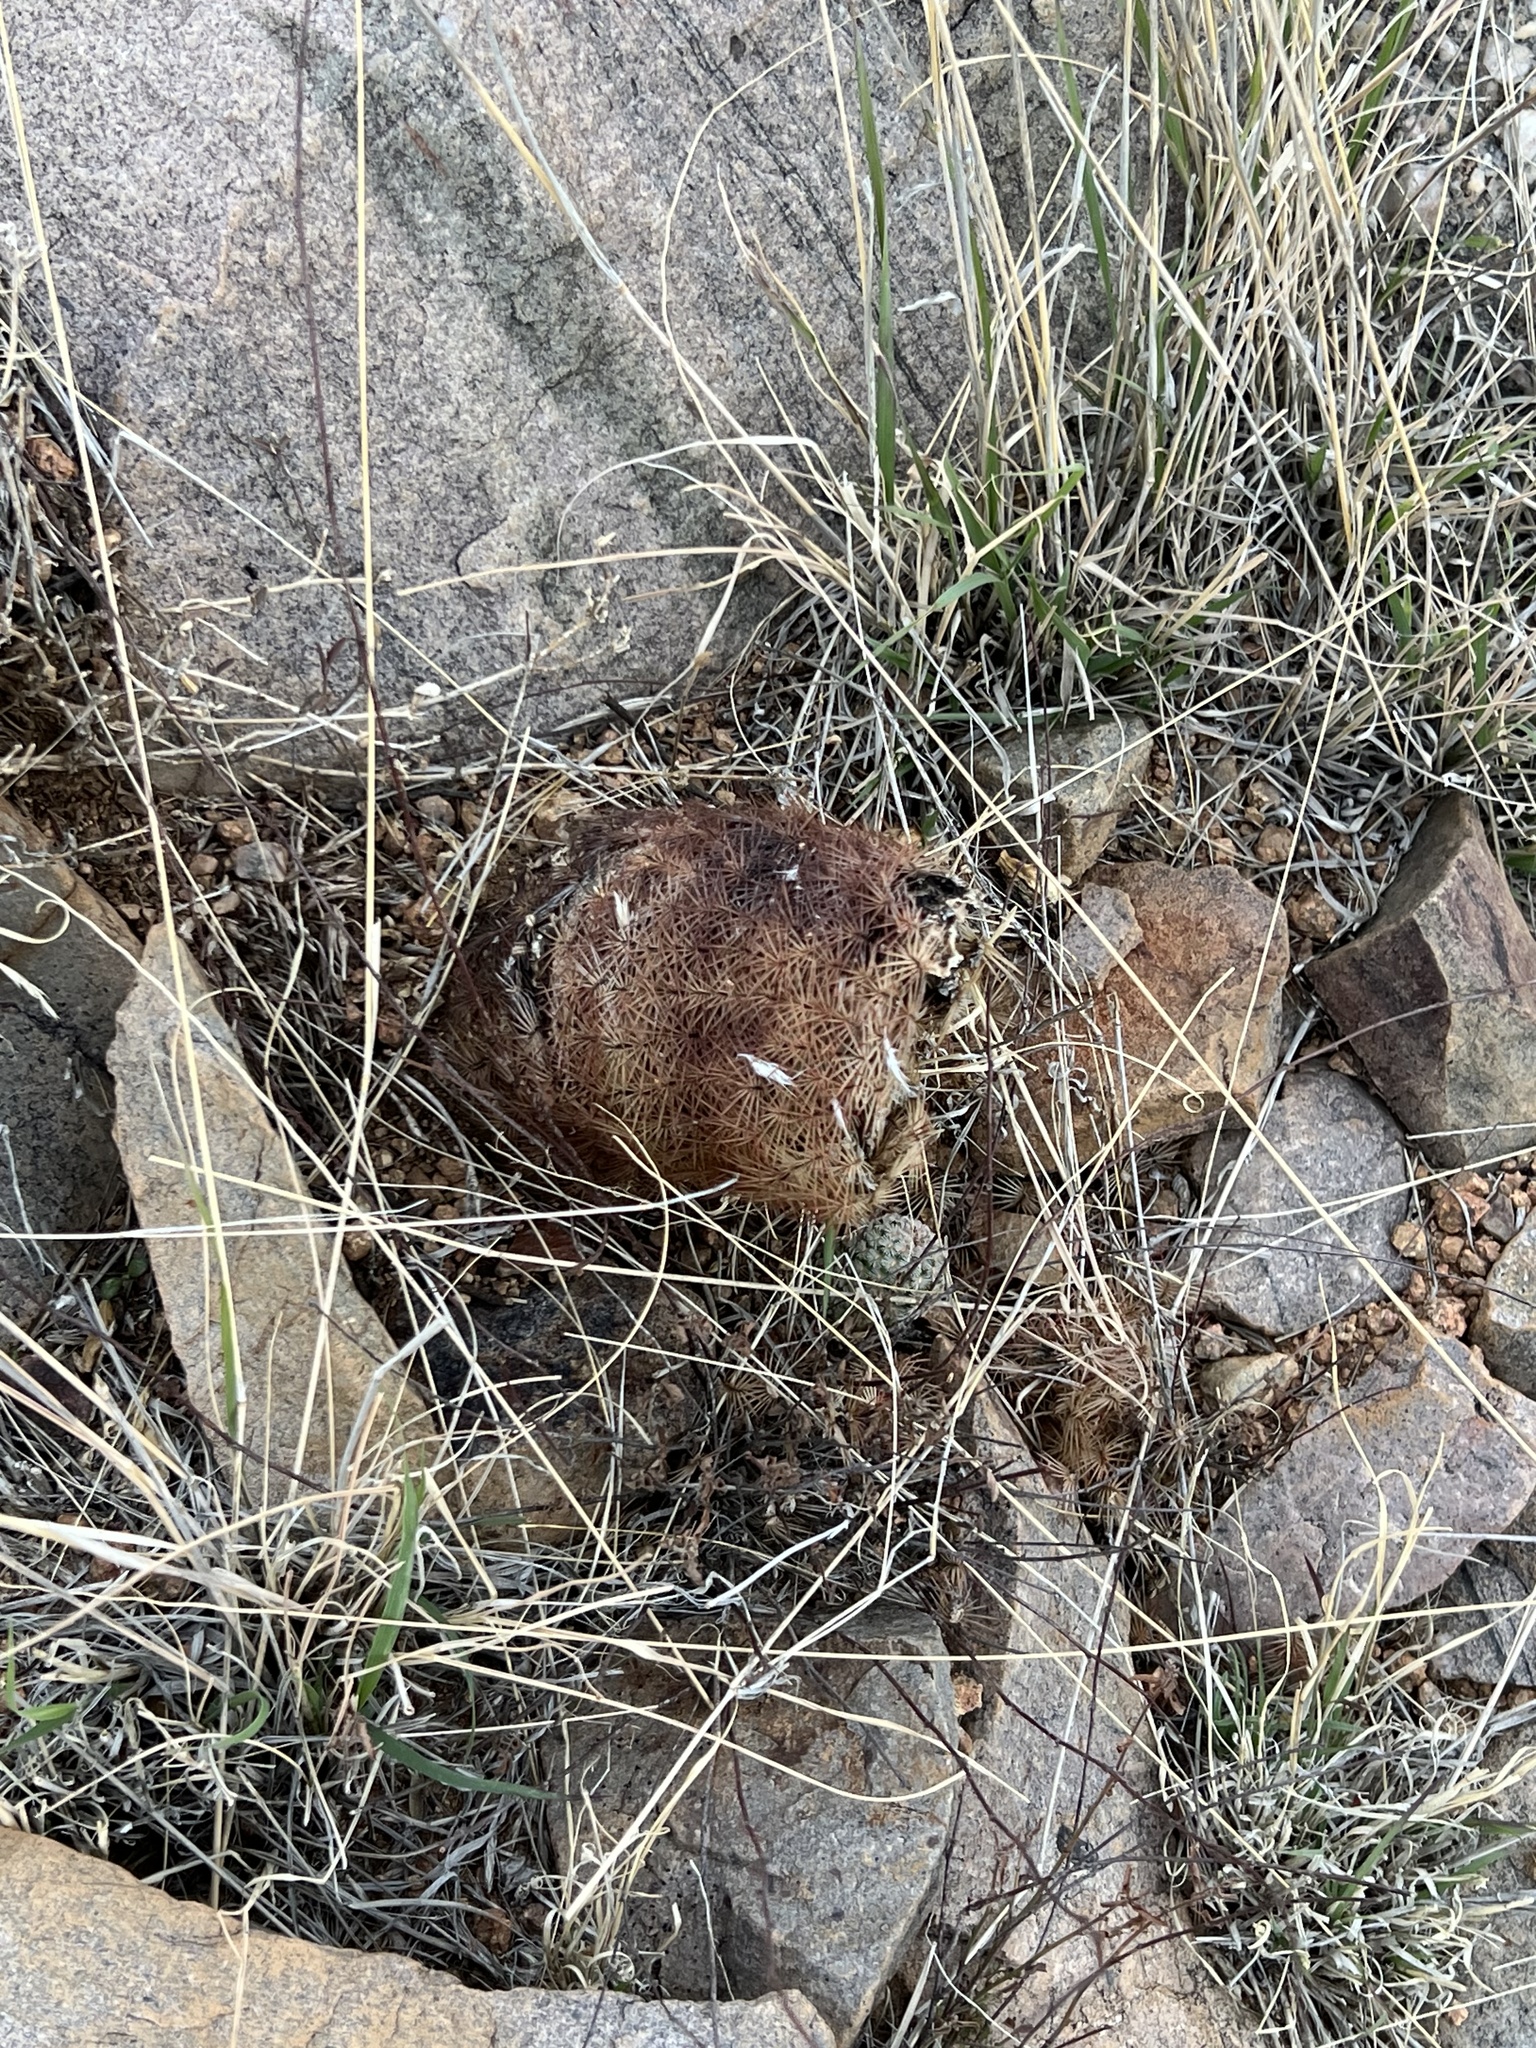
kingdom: Plantae
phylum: Tracheophyta
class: Magnoliopsida
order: Caryophyllales
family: Cactaceae
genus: Echinocereus
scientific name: Echinocereus rigidissimus
